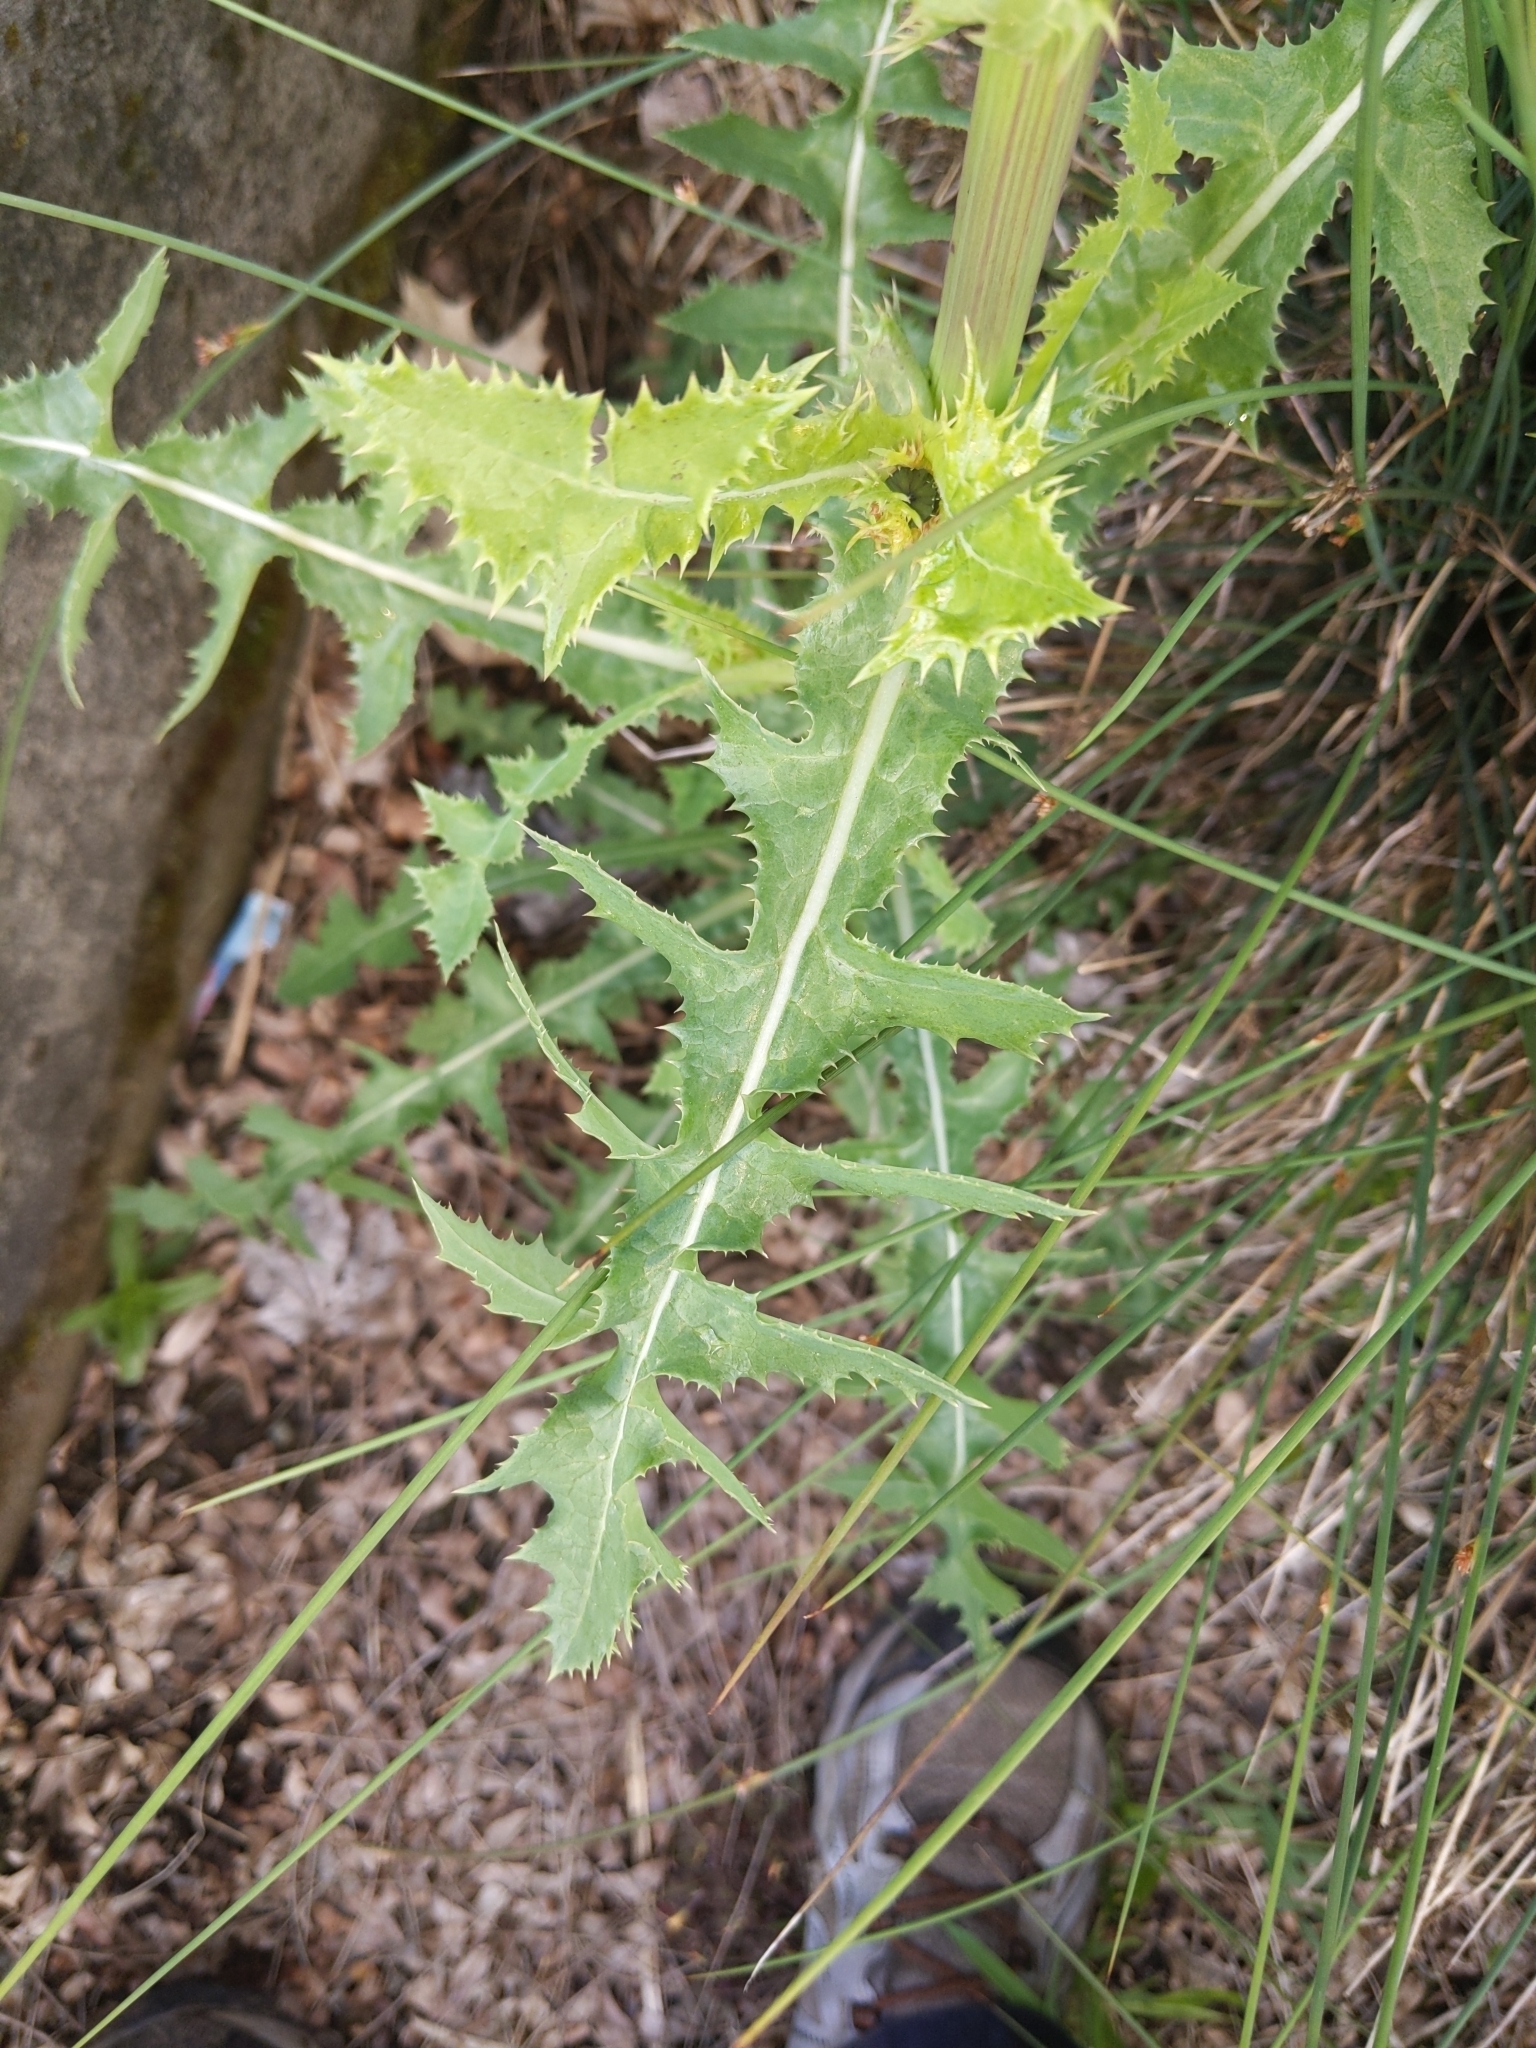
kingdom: Plantae
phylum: Tracheophyta
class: Magnoliopsida
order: Asterales
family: Asteraceae
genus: Sonchus
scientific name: Sonchus asper
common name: Prickly sow-thistle
